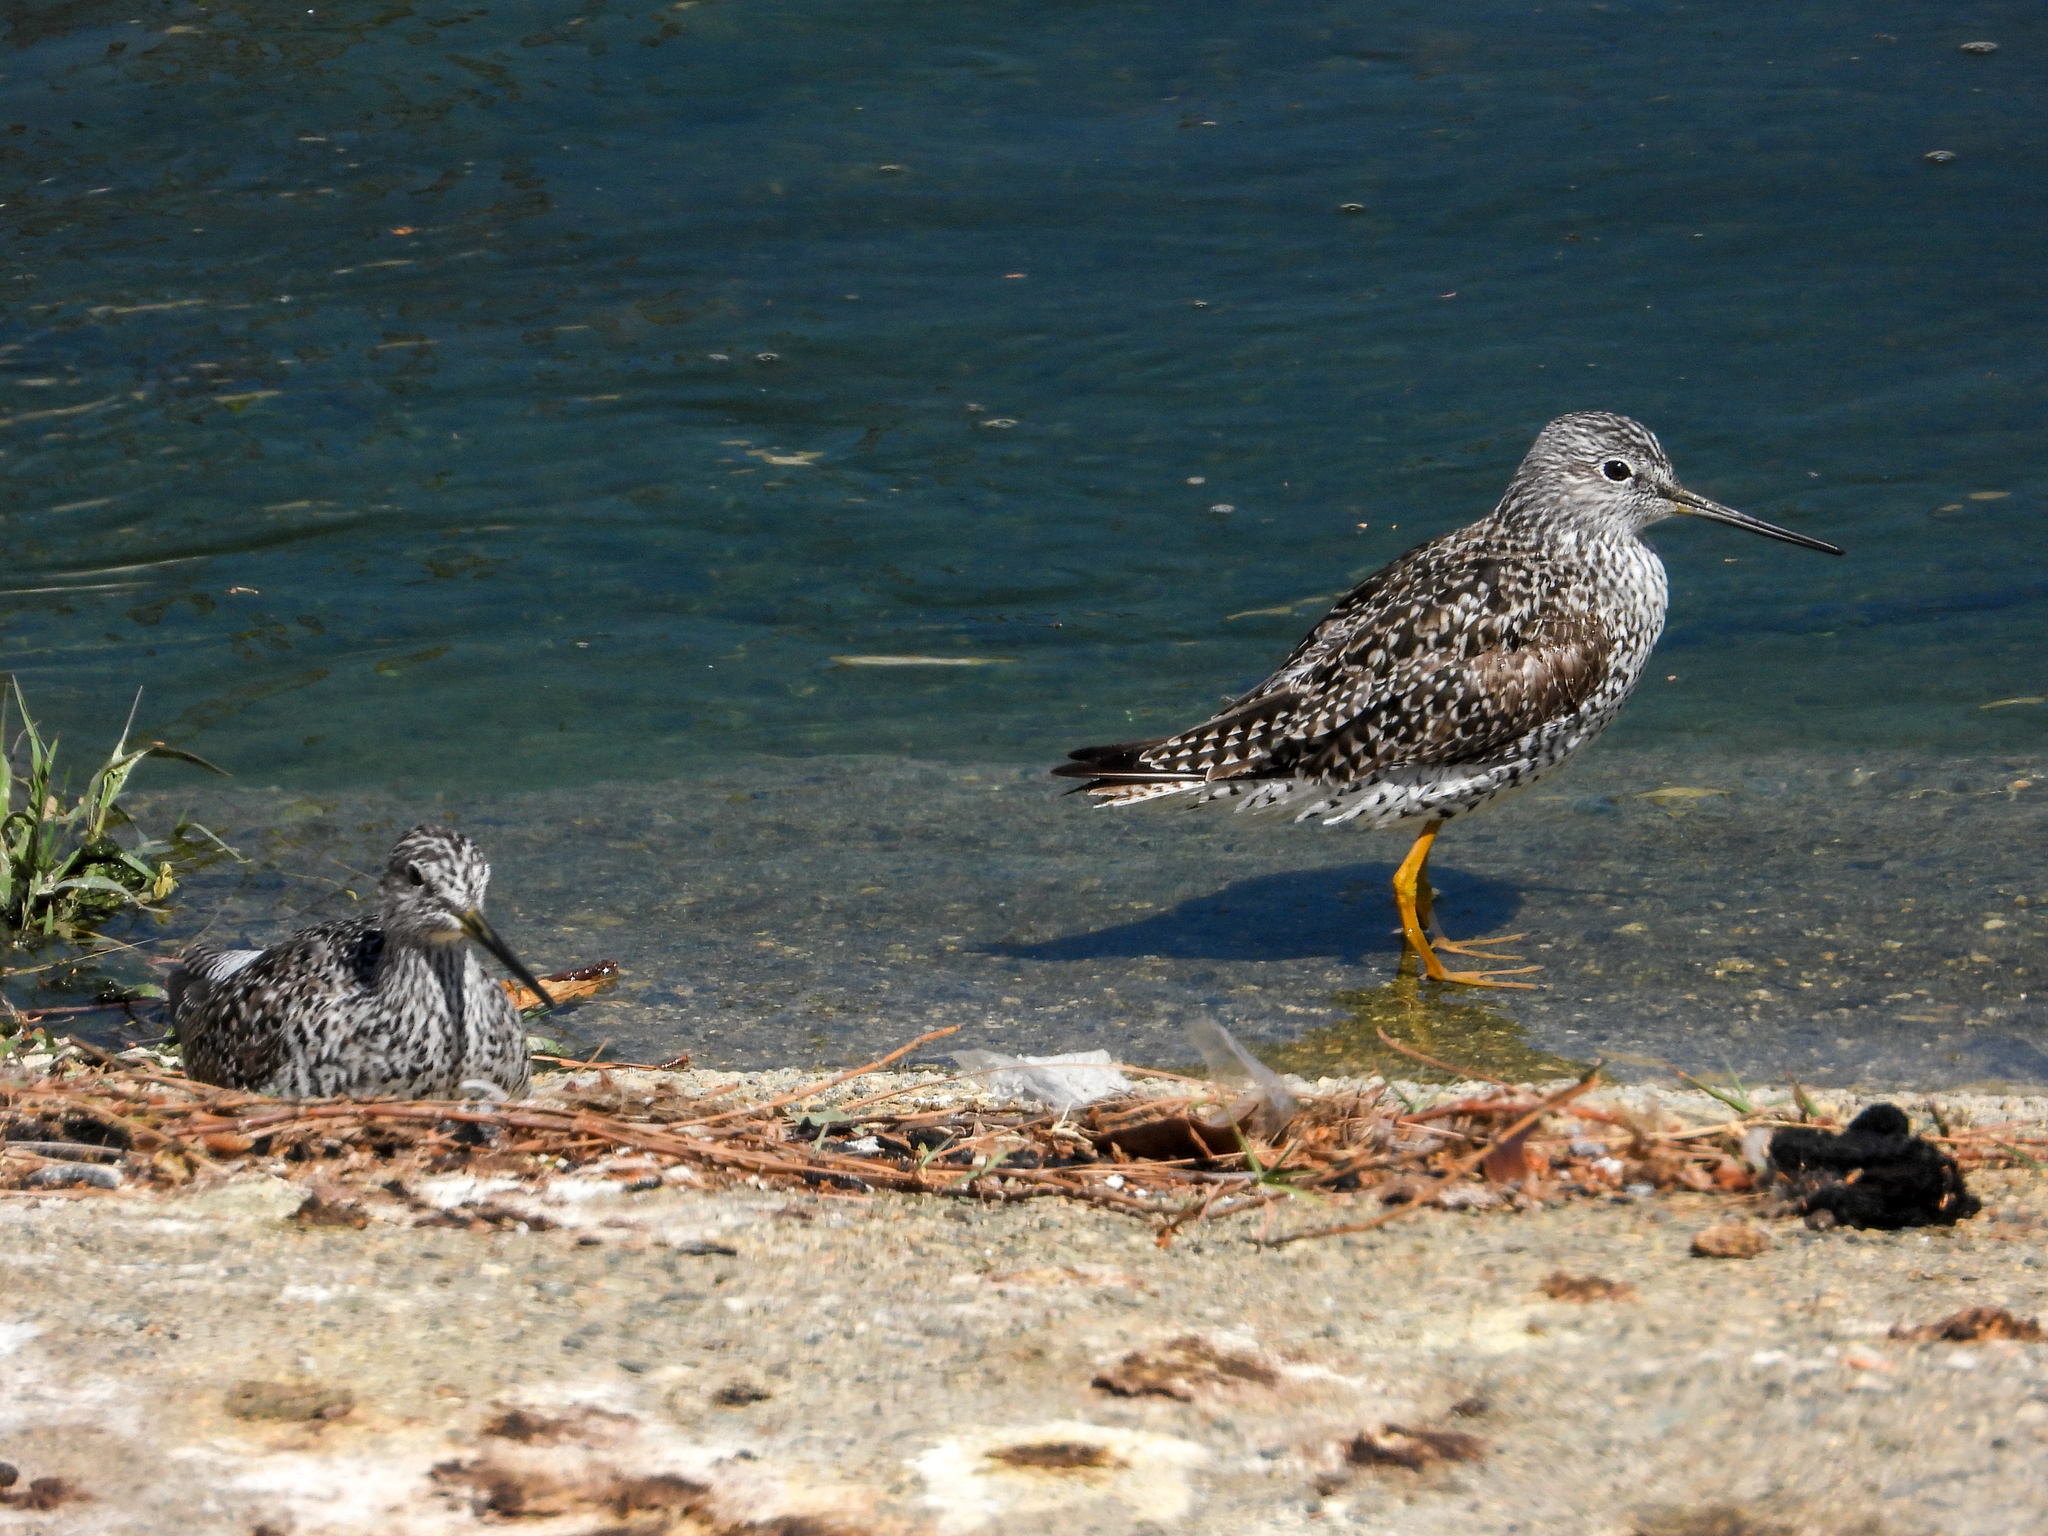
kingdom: Animalia
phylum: Chordata
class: Aves
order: Charadriiformes
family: Scolopacidae
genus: Tringa
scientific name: Tringa melanoleuca
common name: Greater yellowlegs
